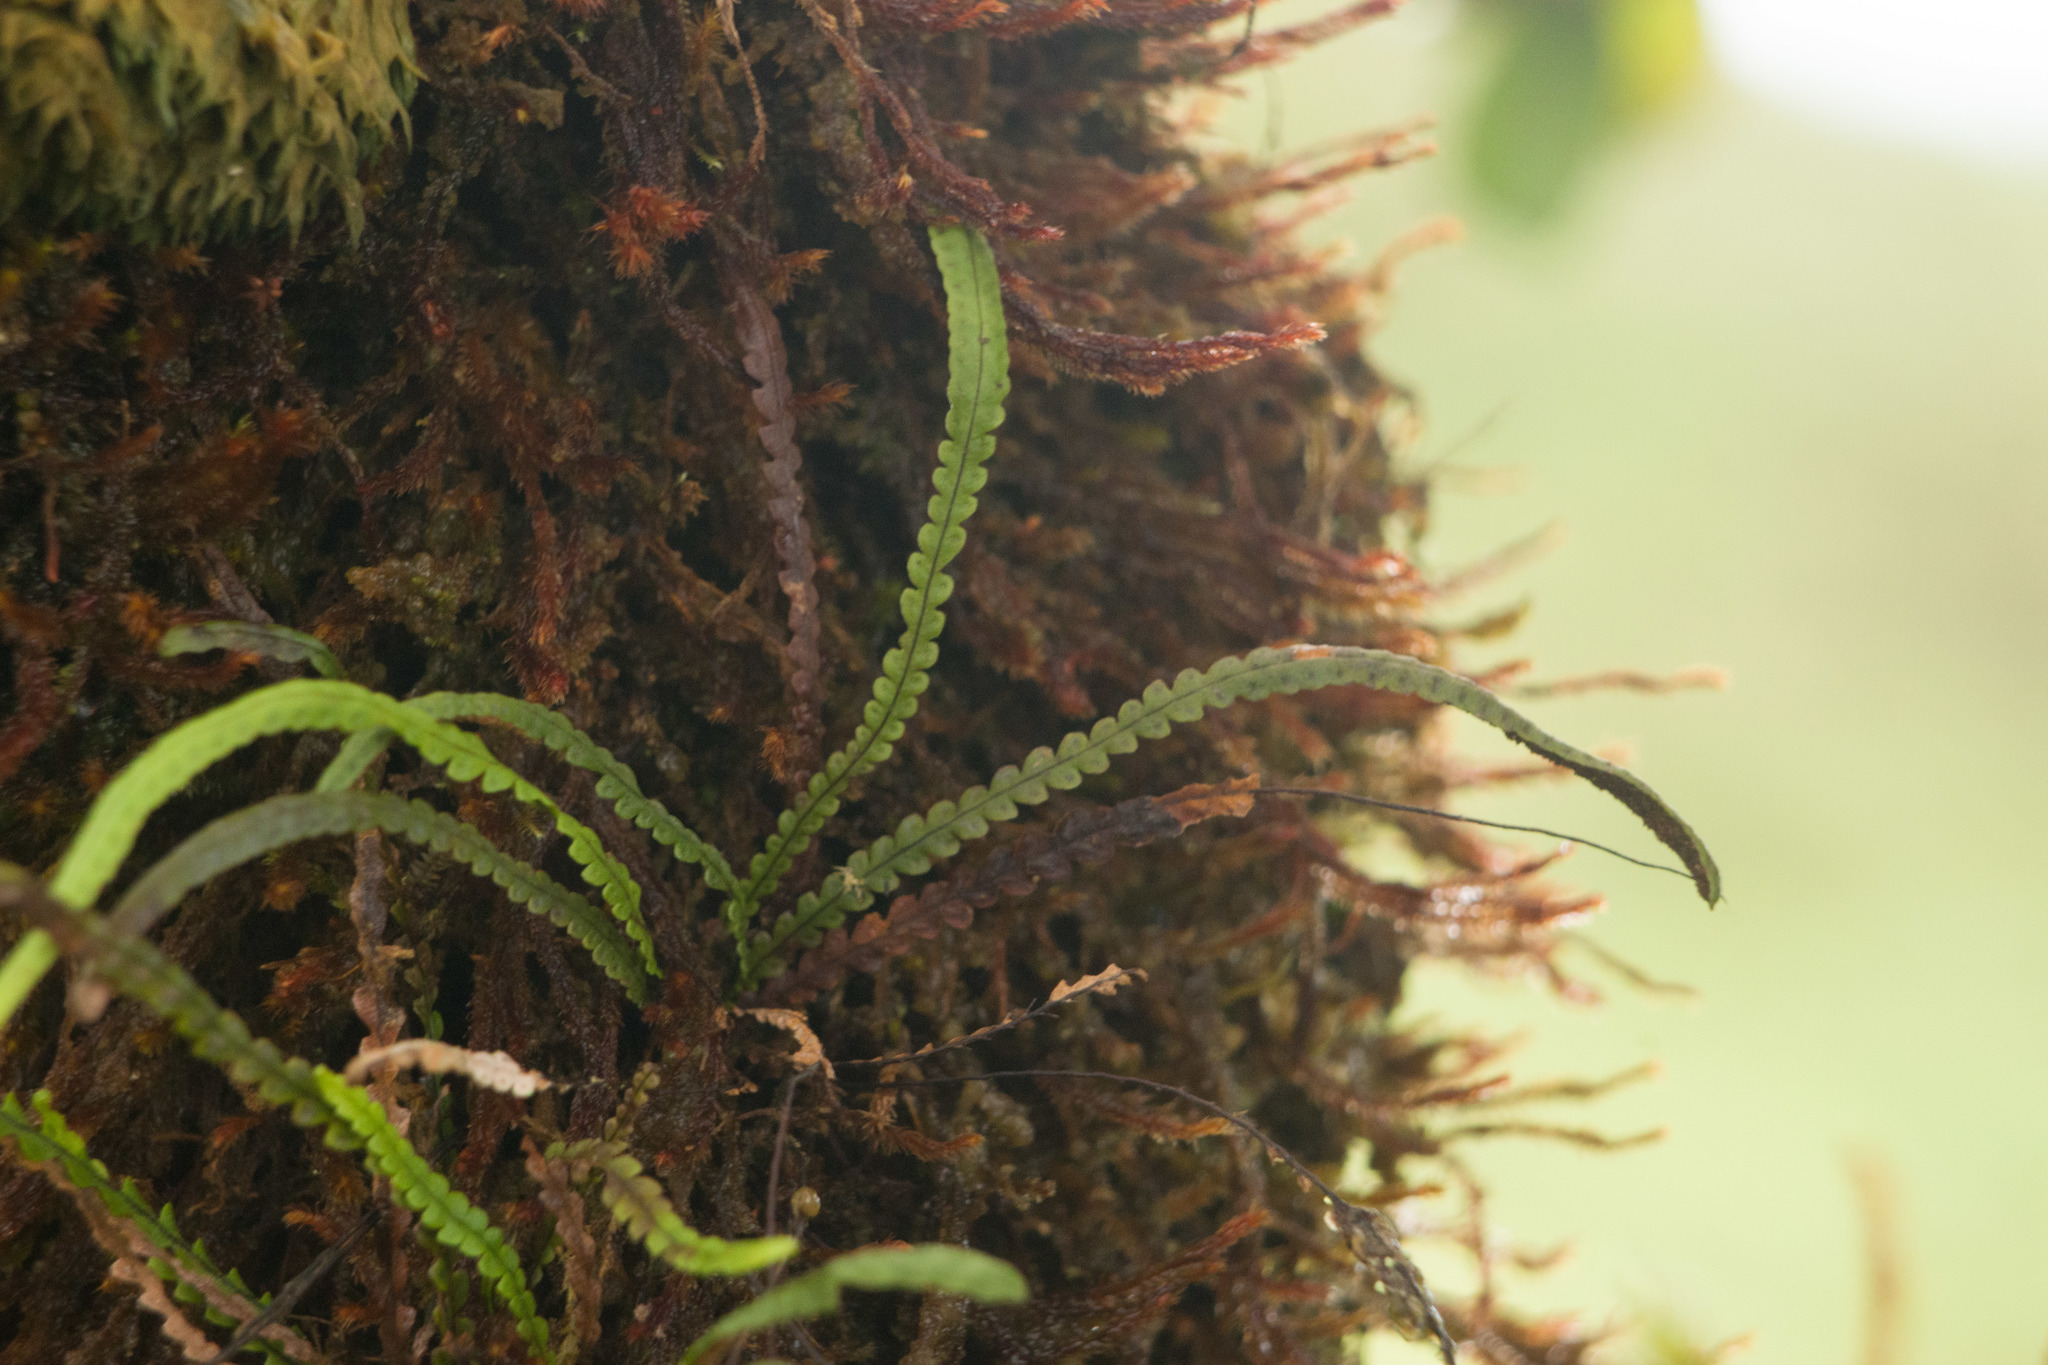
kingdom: Plantae
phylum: Tracheophyta
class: Polypodiopsida
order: Polypodiales
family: Polypodiaceae
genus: Stenogrammitis
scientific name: Stenogrammitis saffordii
